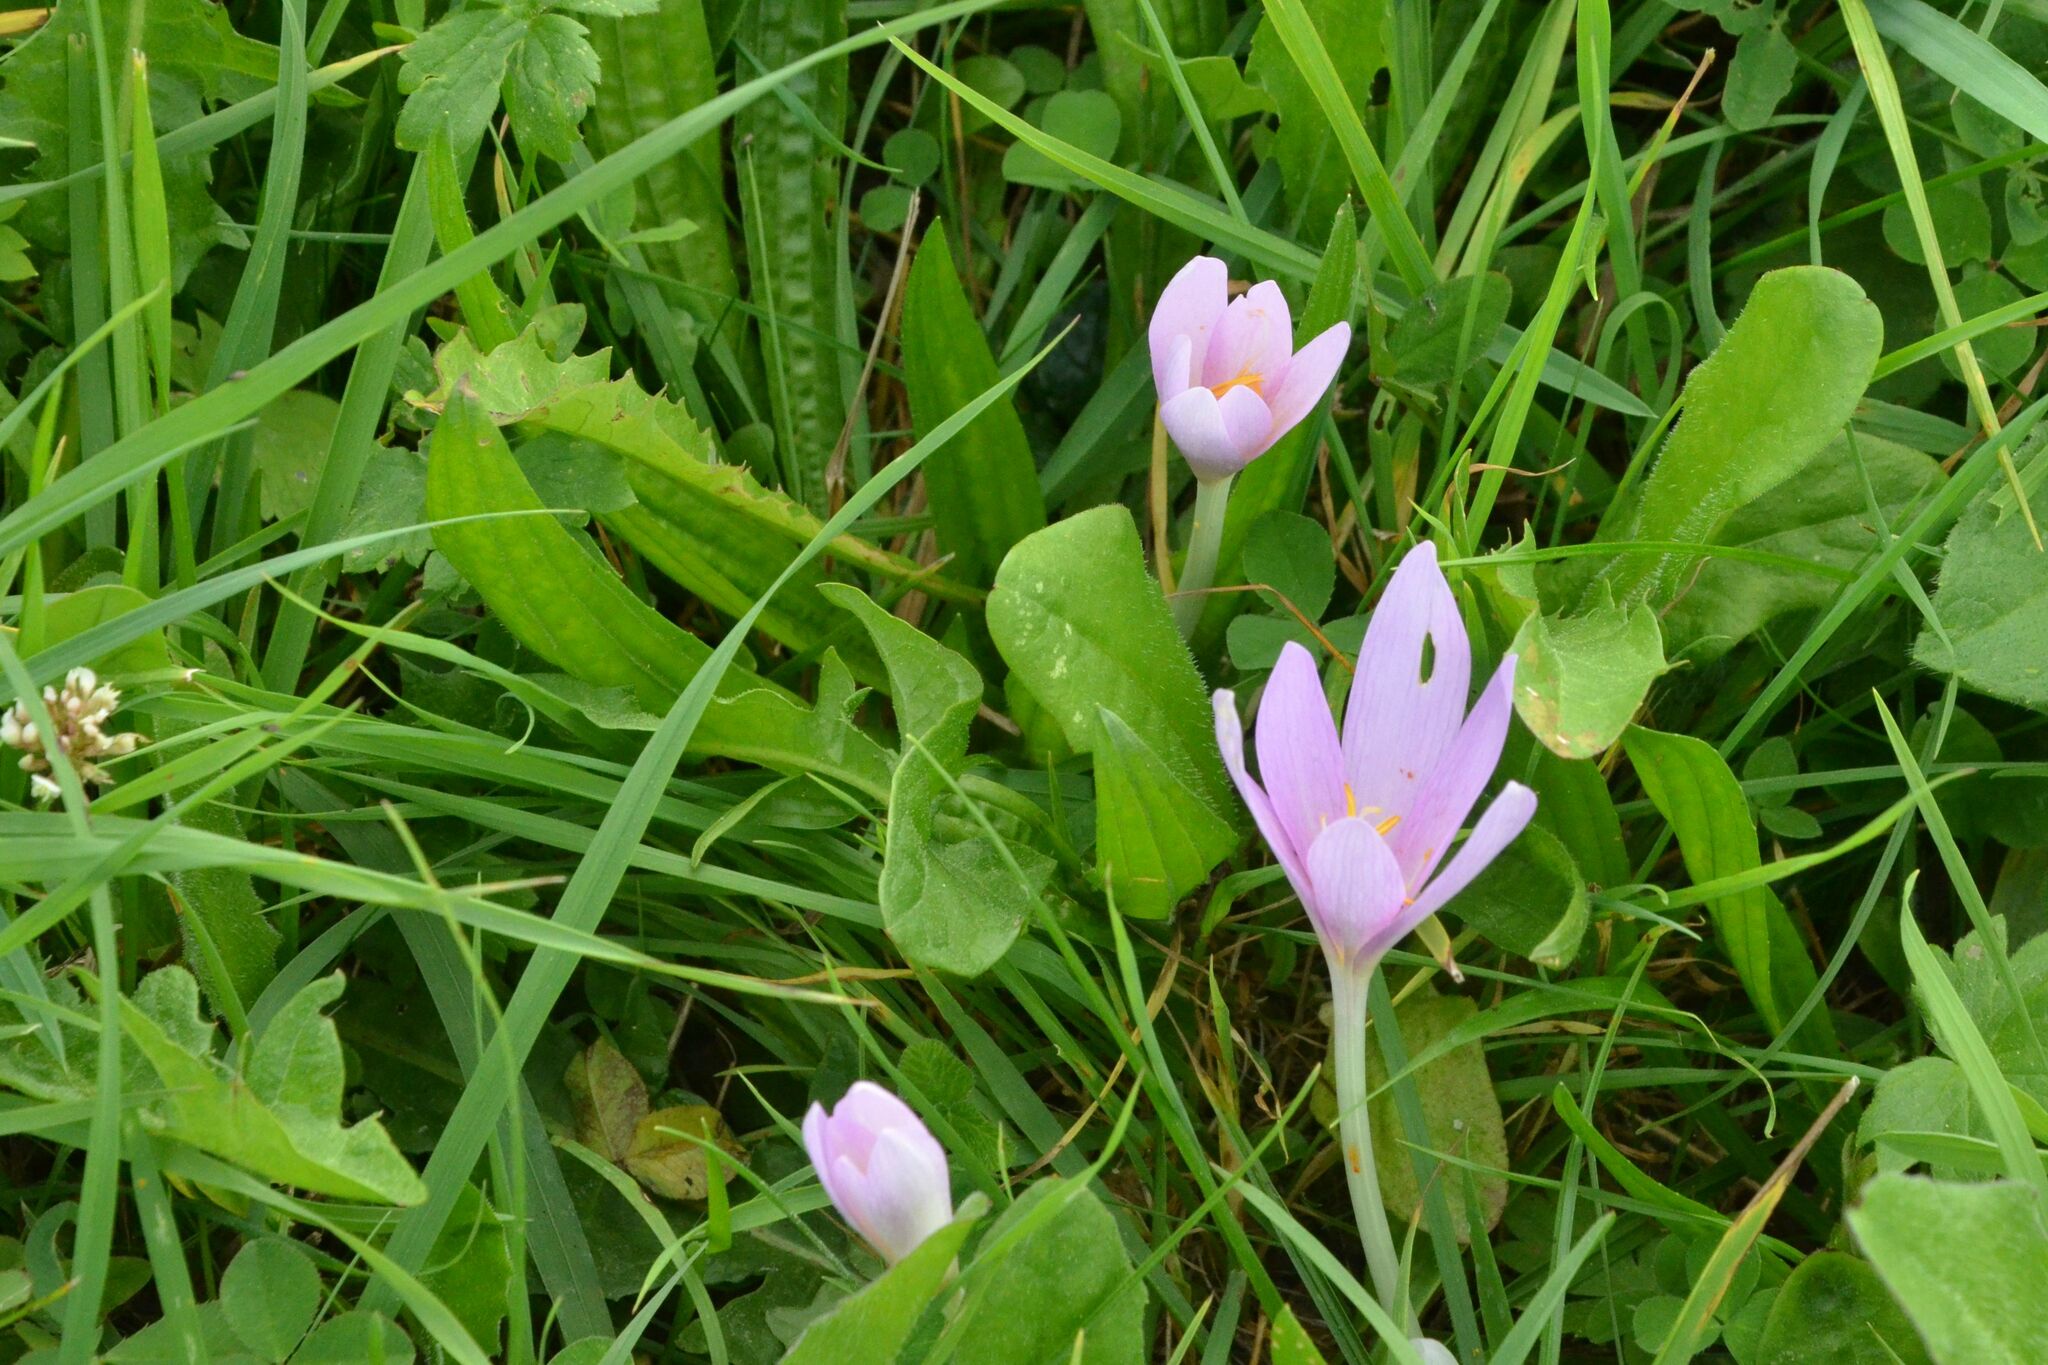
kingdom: Plantae
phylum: Tracheophyta
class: Liliopsida
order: Liliales
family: Colchicaceae
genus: Colchicum
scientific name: Colchicum autumnale
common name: Autumn crocus
